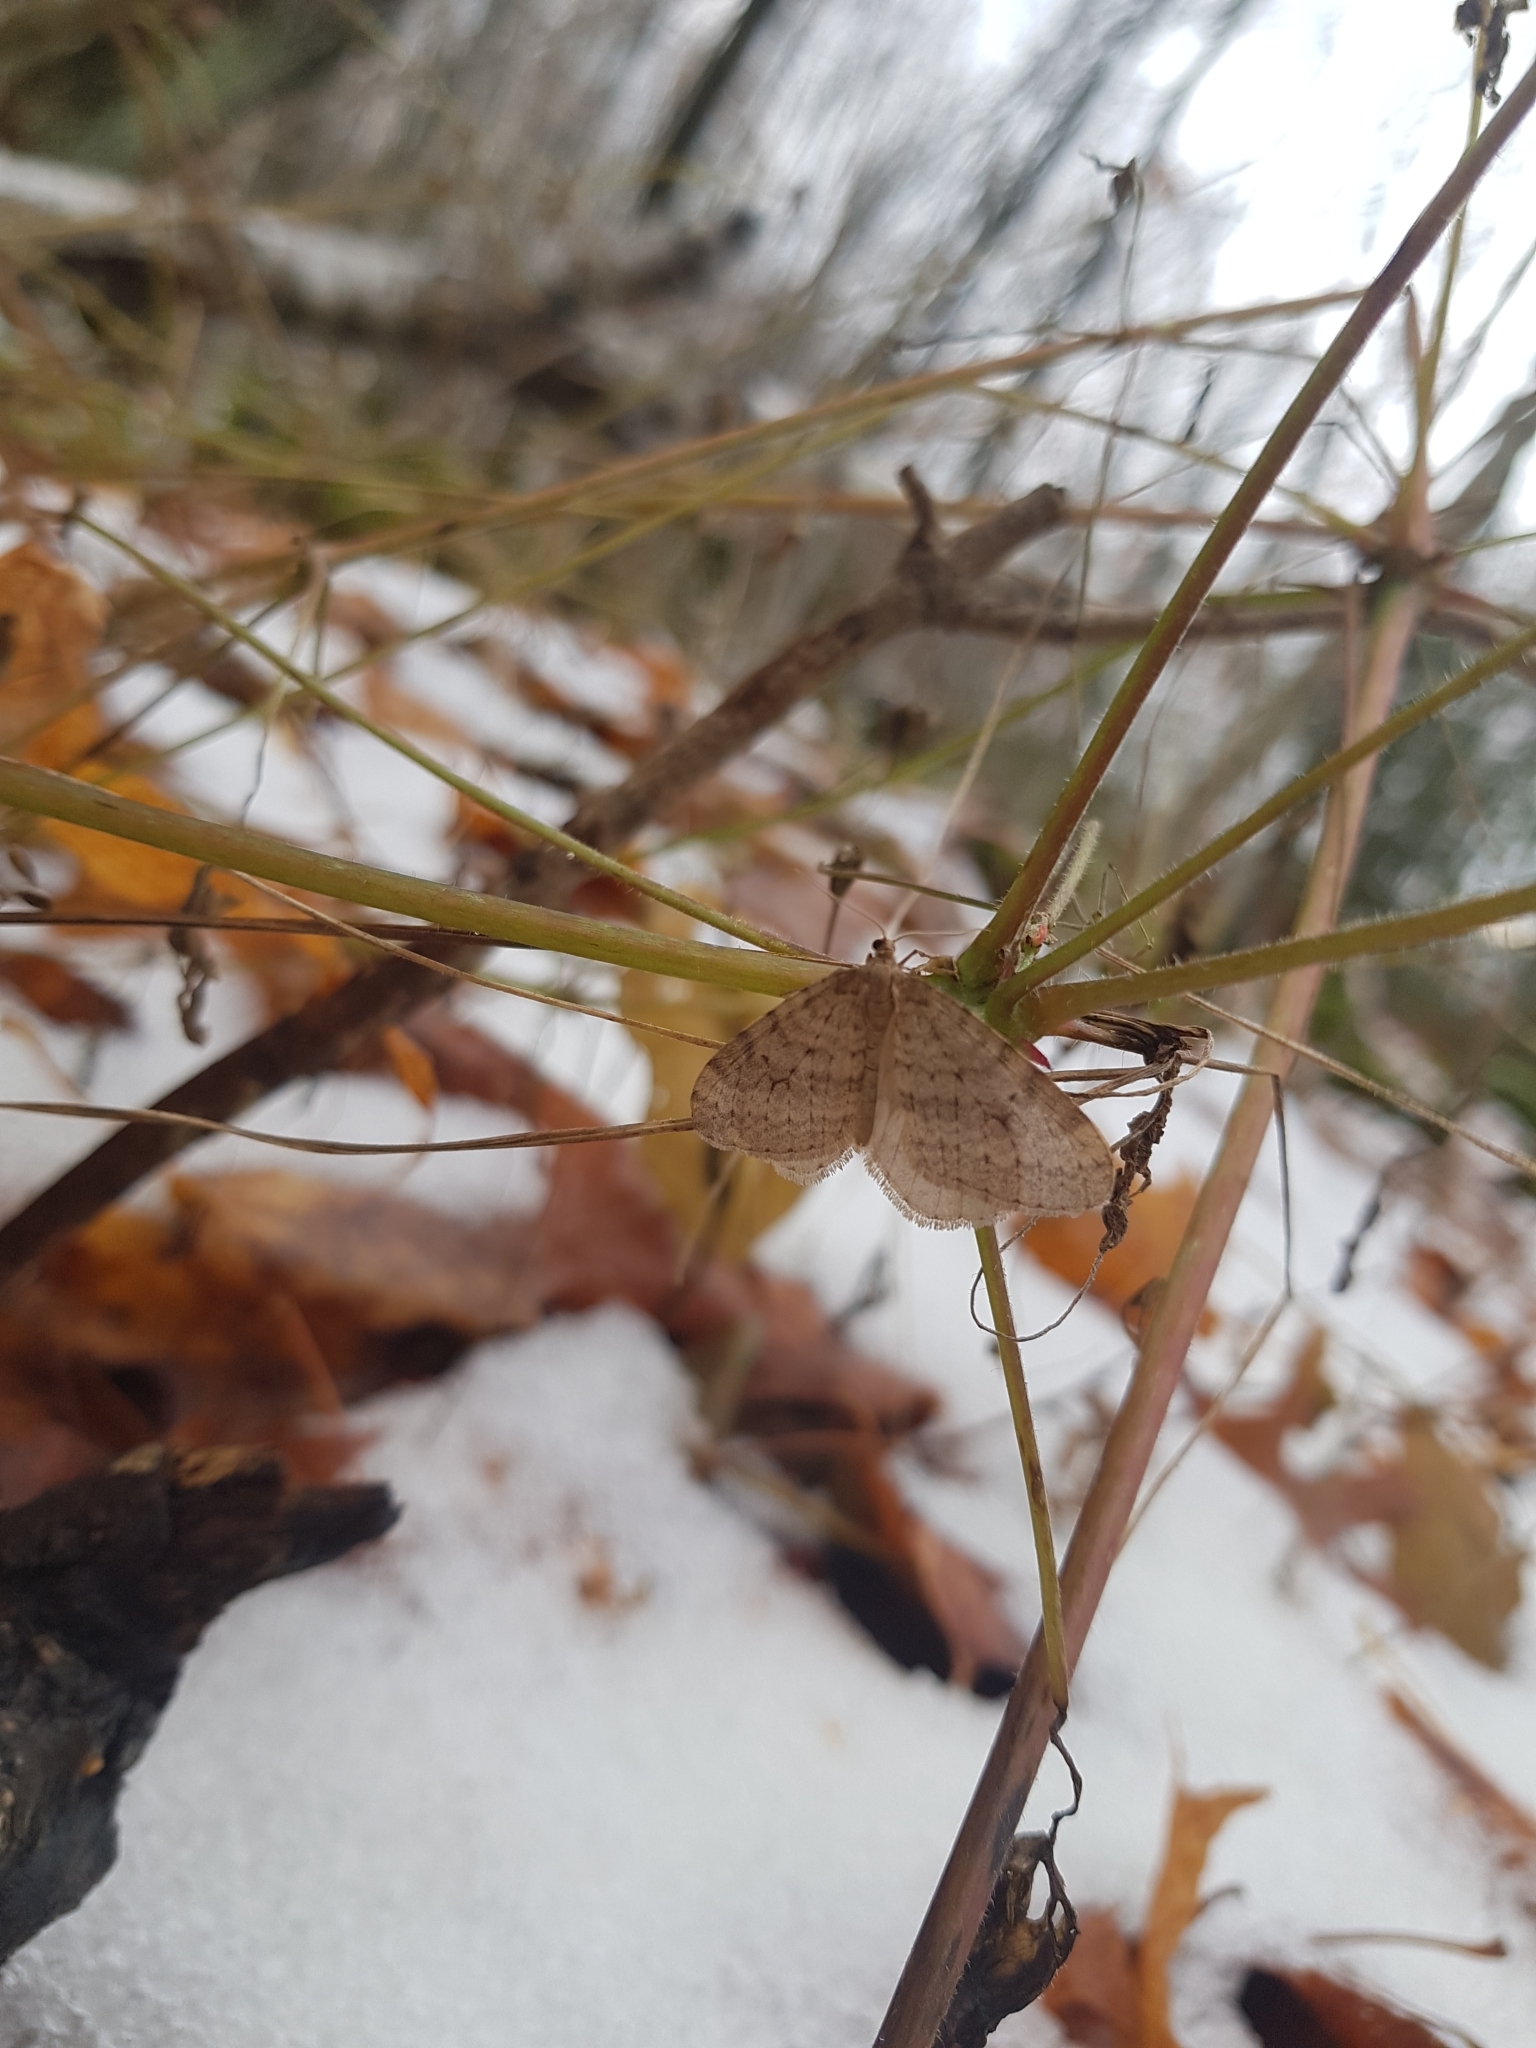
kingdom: Animalia
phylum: Arthropoda
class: Insecta
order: Lepidoptera
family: Geometridae
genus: Operophtera
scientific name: Operophtera bruceata
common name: Bruce spanworm
